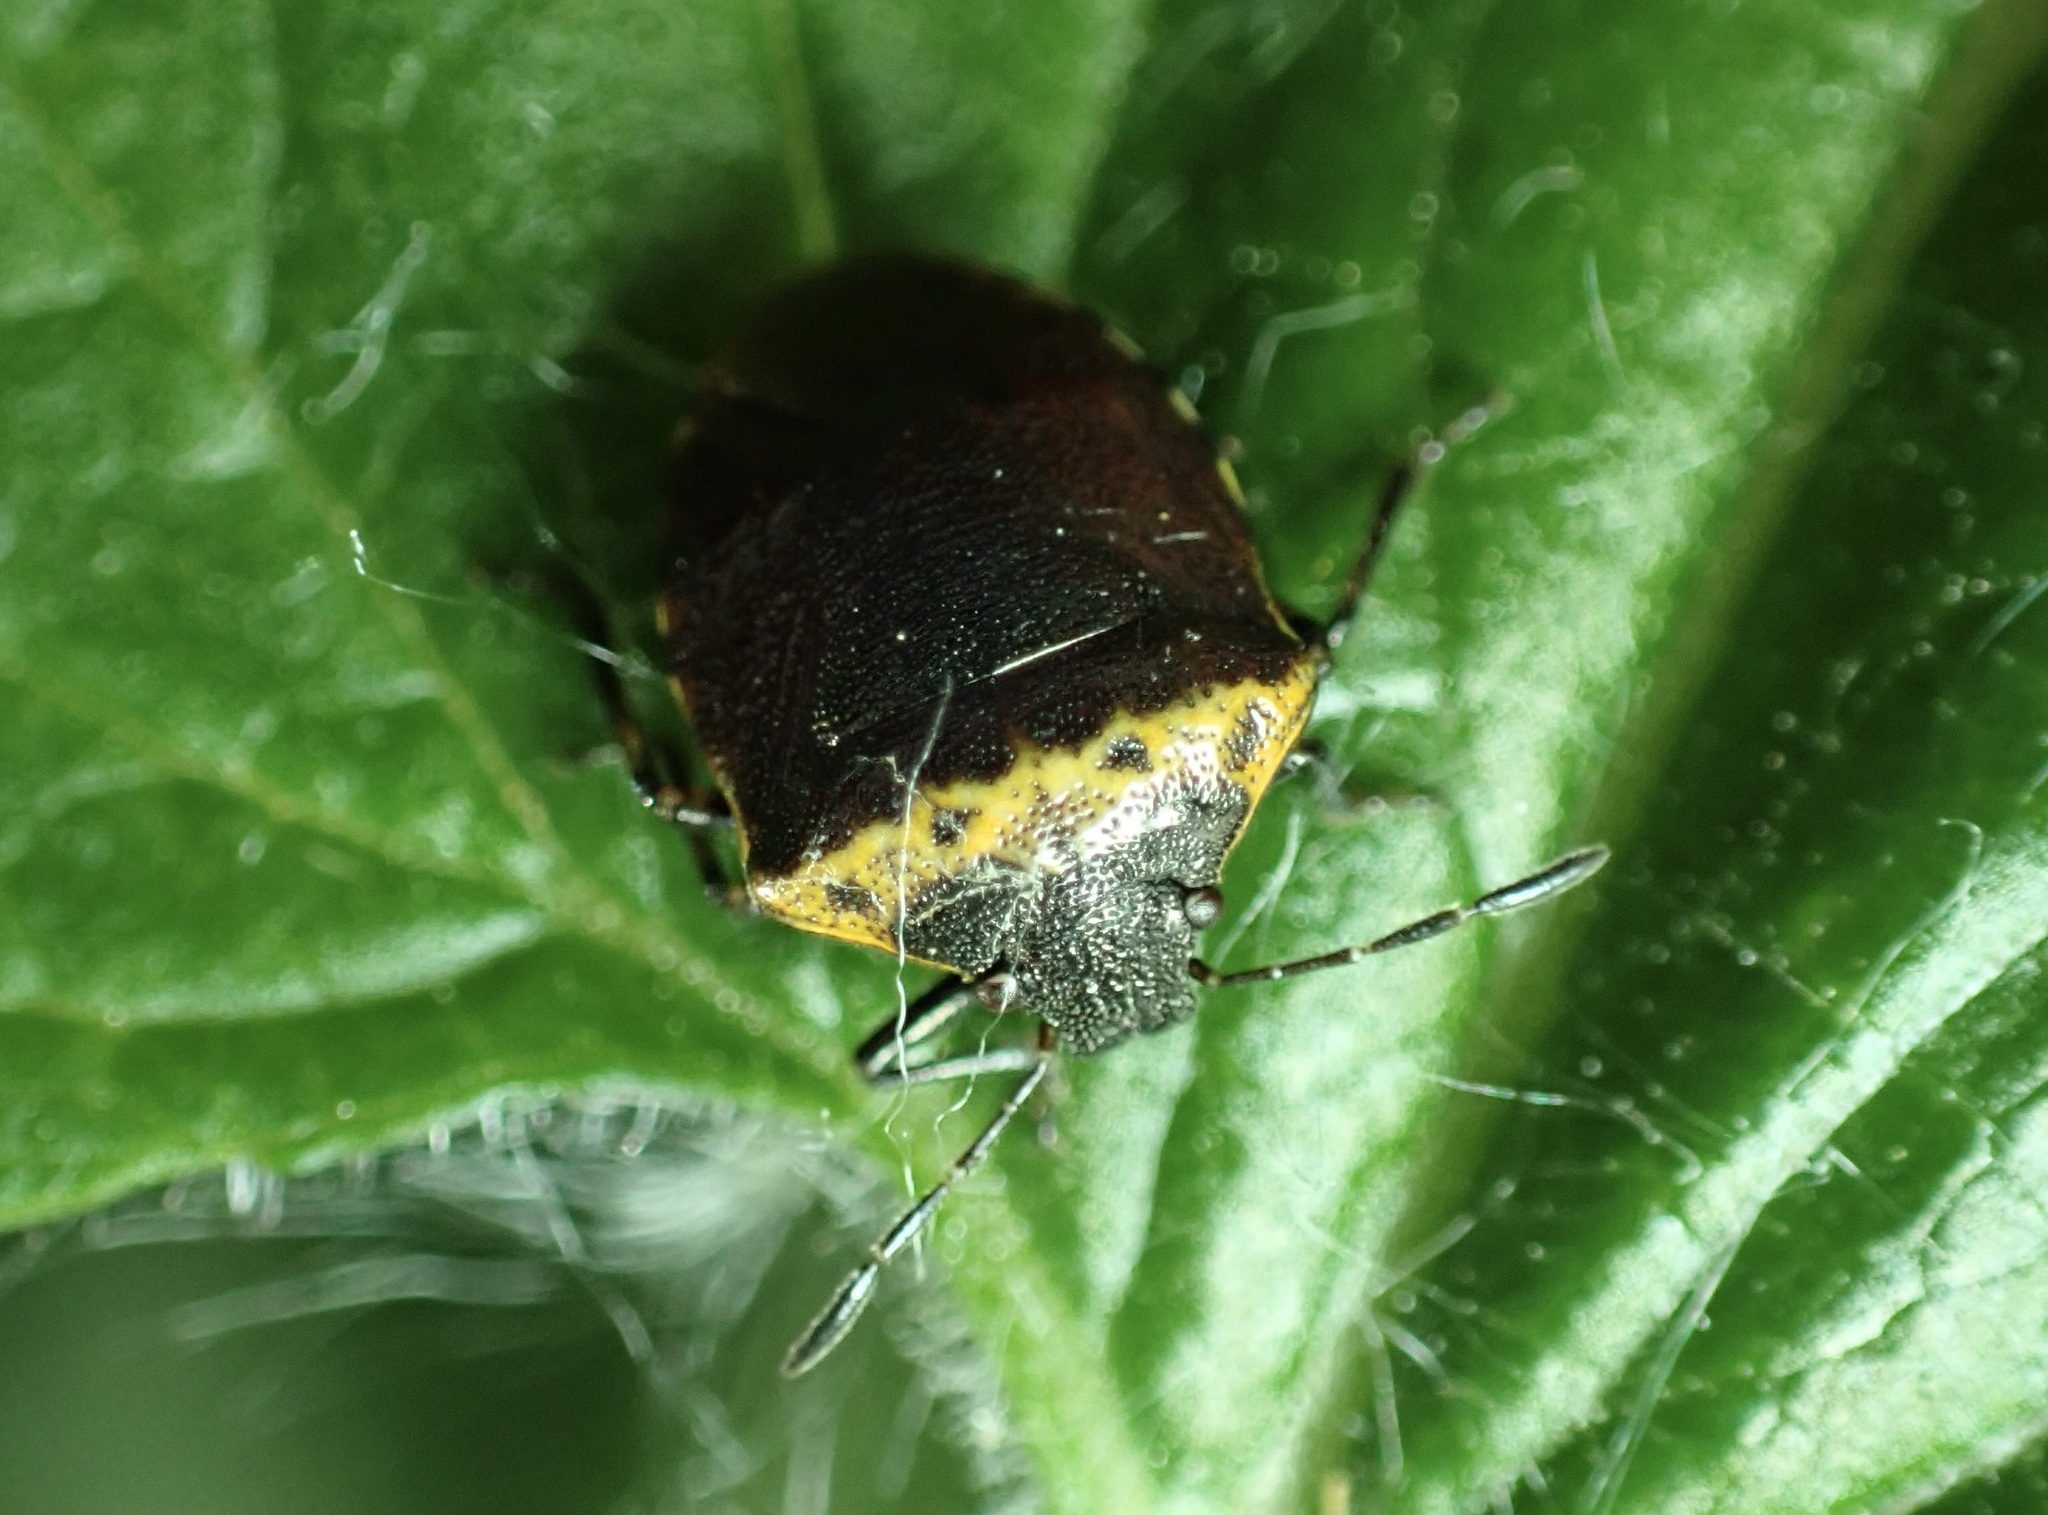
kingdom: Animalia
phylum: Arthropoda
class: Insecta
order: Hemiptera
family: Pentatomidae
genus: Cosmopepla
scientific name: Cosmopepla uhleri
